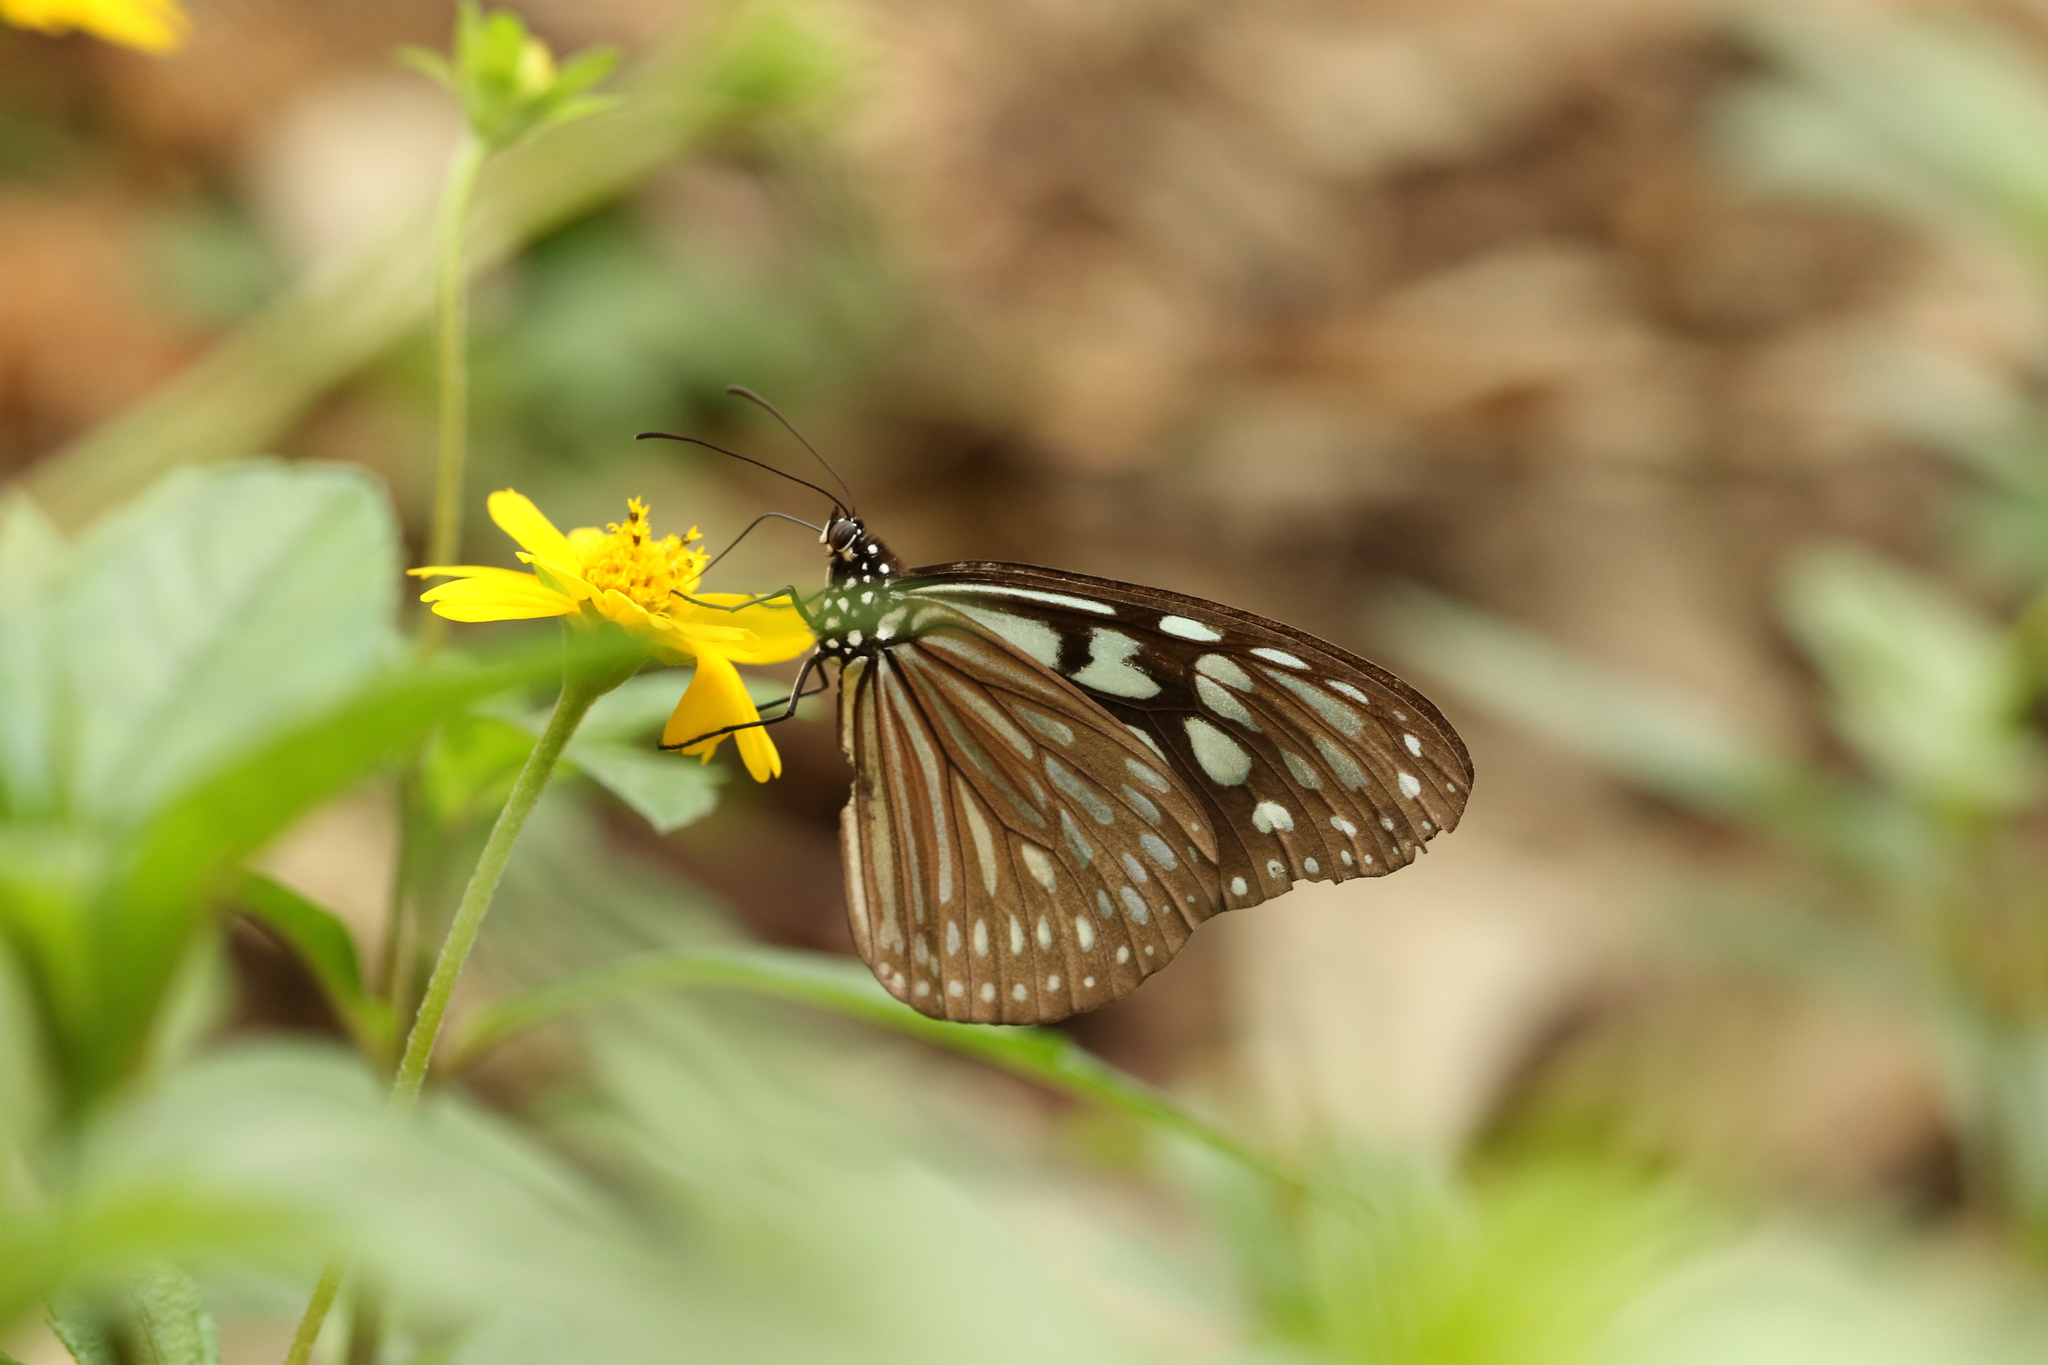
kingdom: Animalia
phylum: Arthropoda
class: Insecta
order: Lepidoptera
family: Nymphalidae
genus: Ideopsis
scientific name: Ideopsis similis
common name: Ceylon blue glassy tiger
